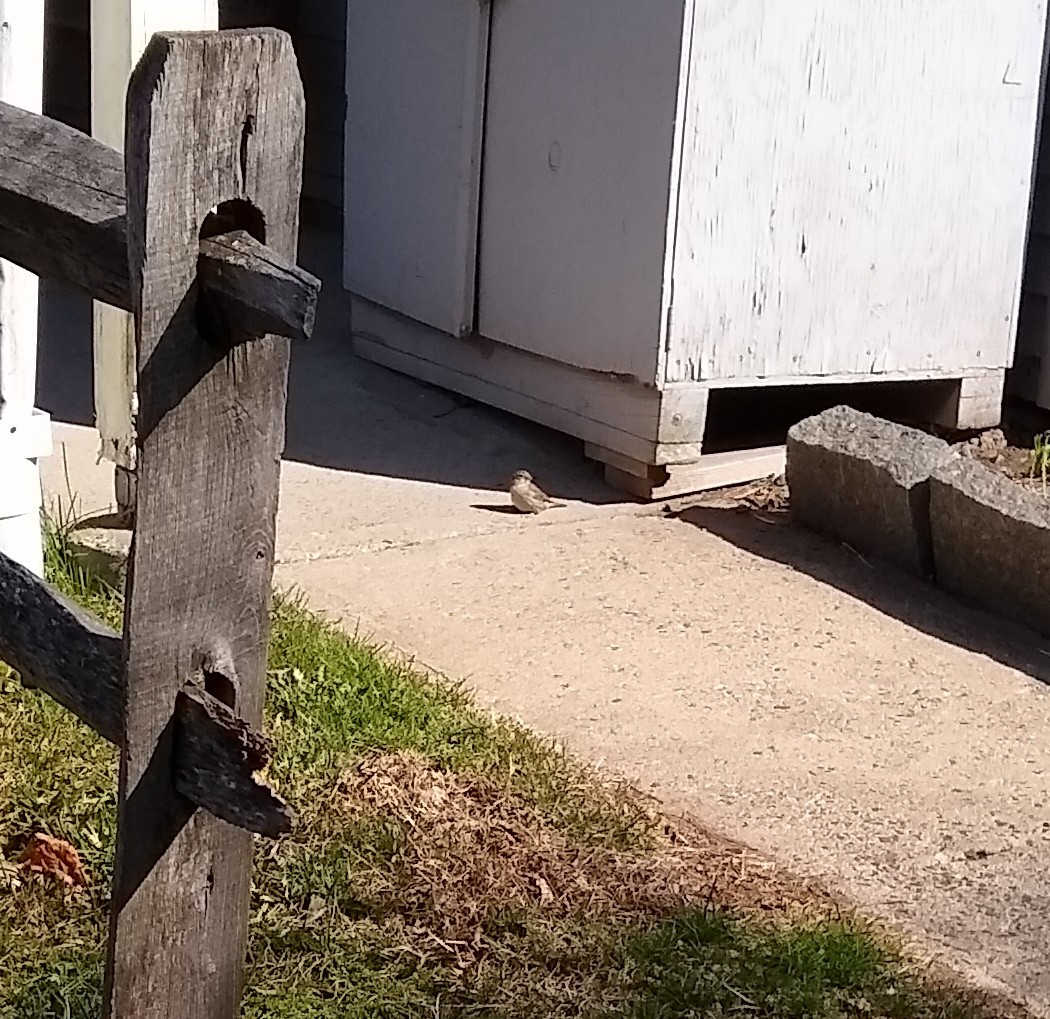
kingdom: Animalia
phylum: Chordata
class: Aves
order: Passeriformes
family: Passeridae
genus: Passer
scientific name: Passer domesticus
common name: House sparrow
